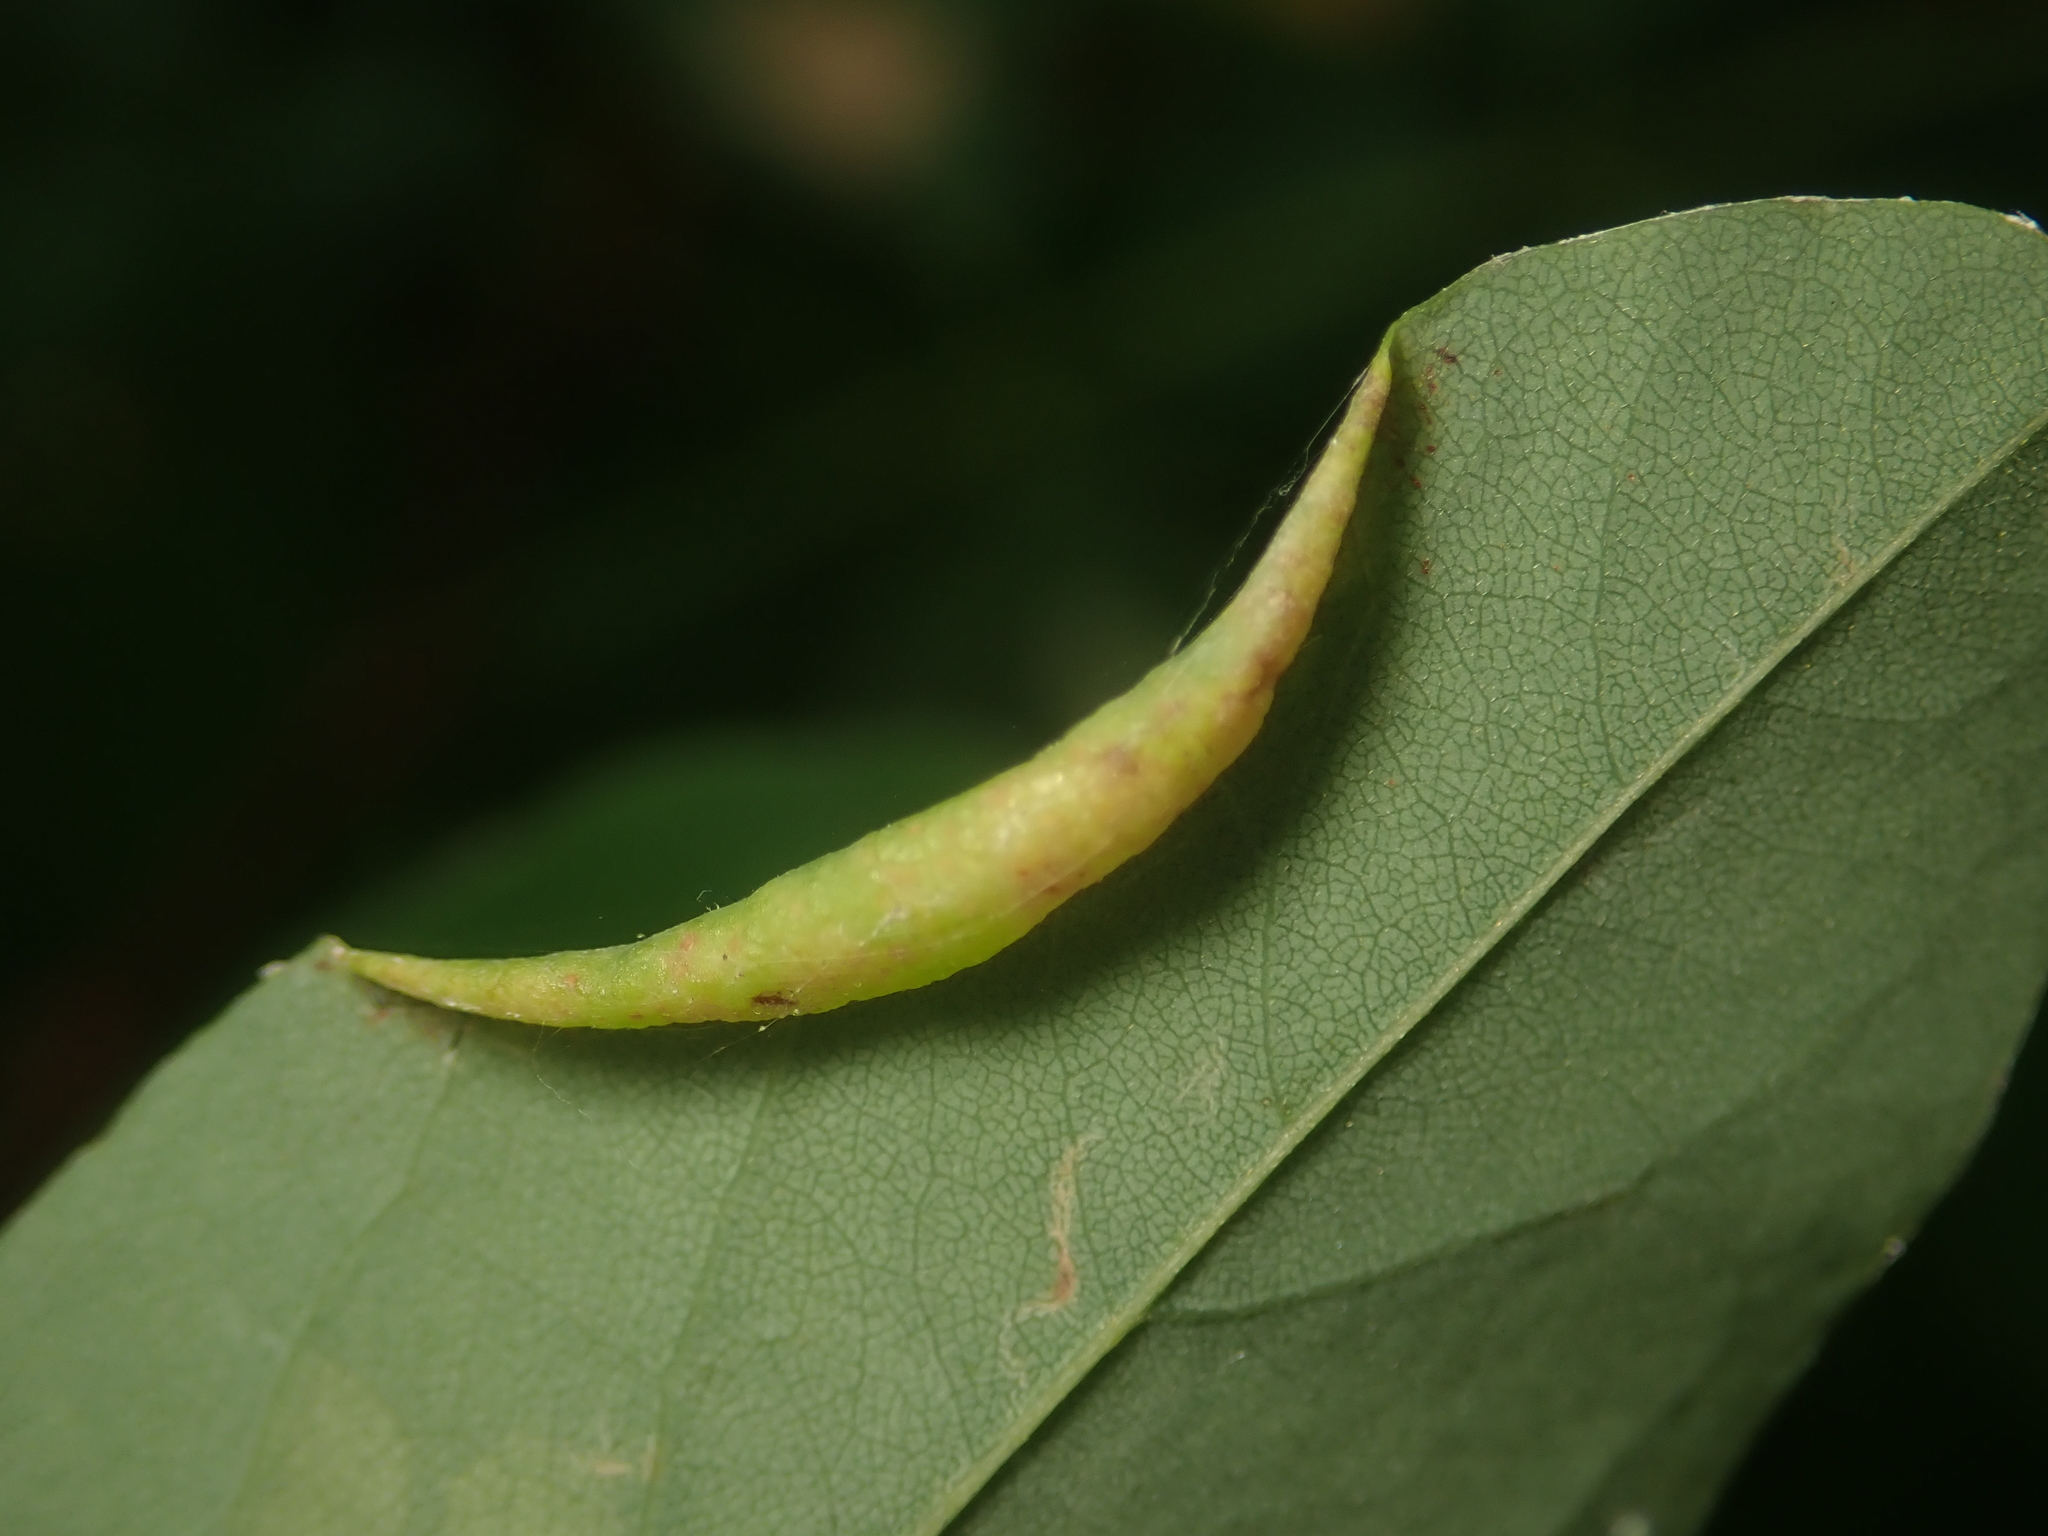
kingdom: Animalia
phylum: Arthropoda
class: Insecta
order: Diptera
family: Cecidomyiidae
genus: Obolodiplosis
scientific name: Obolodiplosis robiniae
